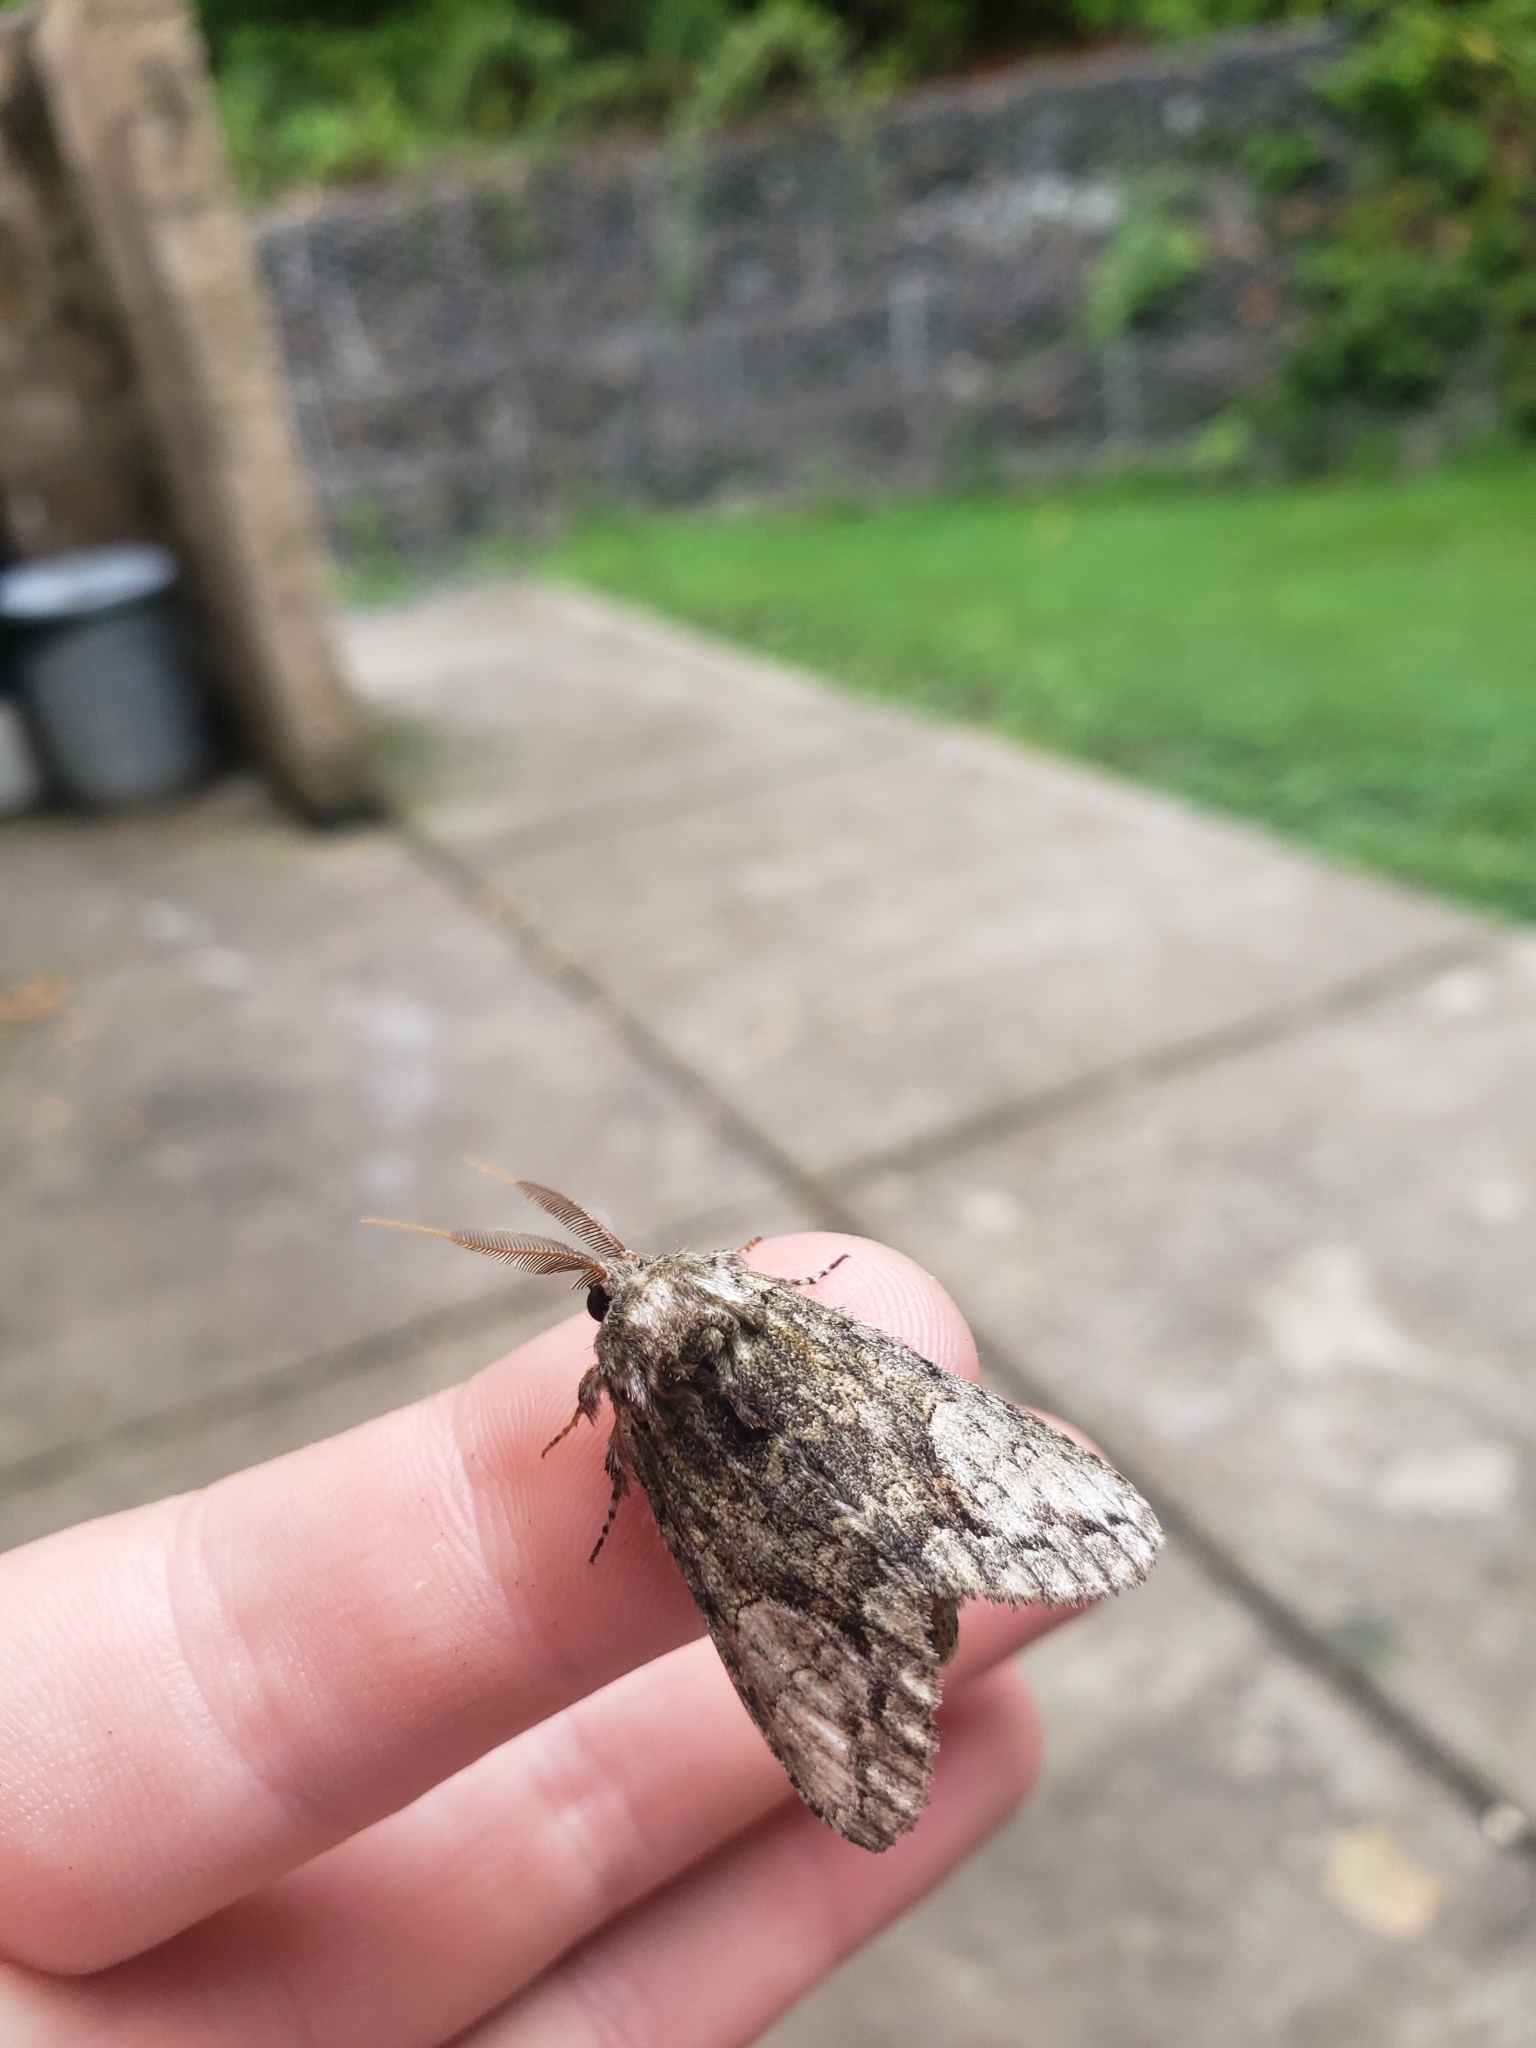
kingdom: Animalia
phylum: Arthropoda
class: Insecta
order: Lepidoptera
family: Notodontidae
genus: Heterocampa
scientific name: Heterocampa
